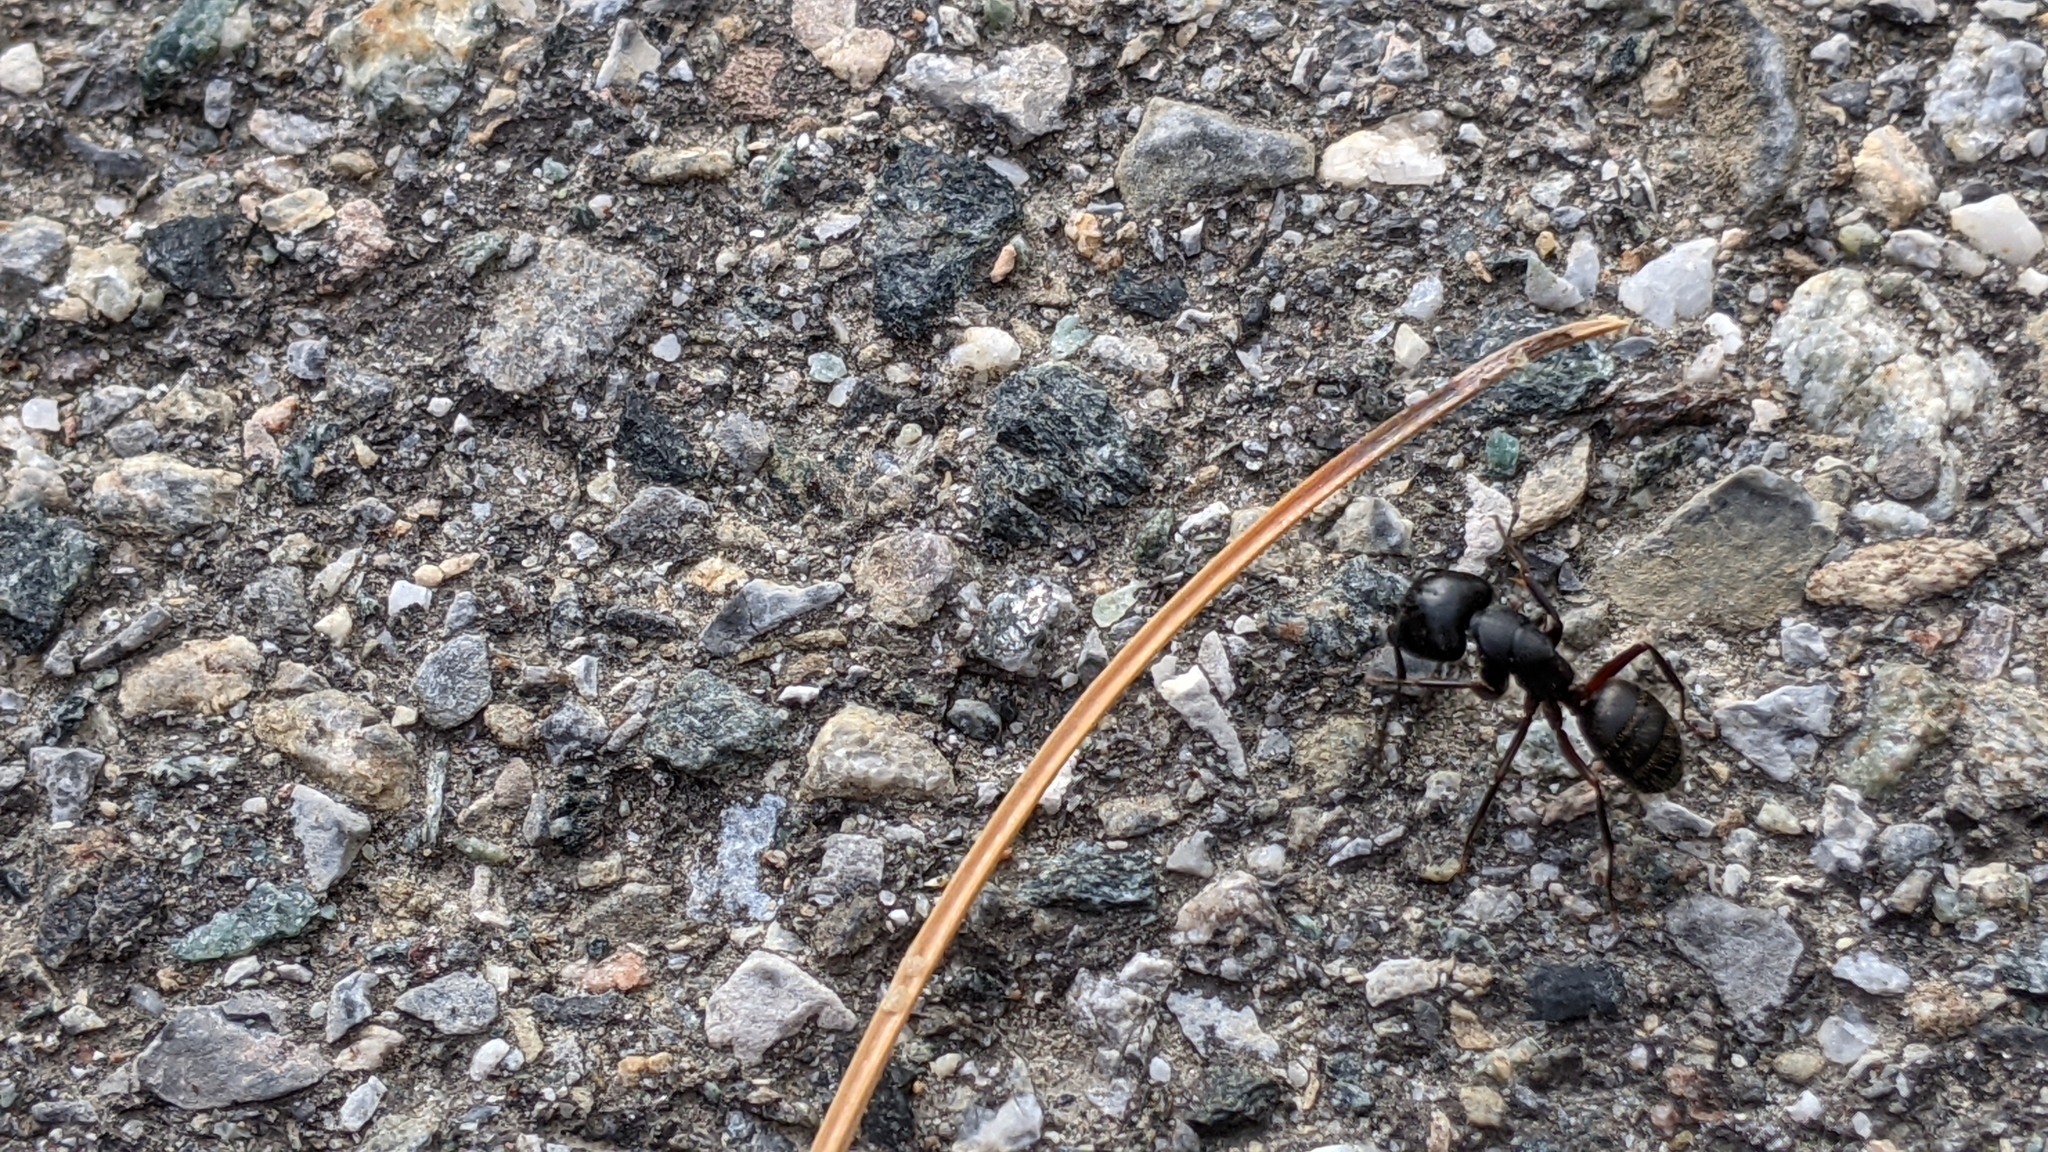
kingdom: Animalia
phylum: Arthropoda
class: Insecta
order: Hymenoptera
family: Formicidae
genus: Camponotus
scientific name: Camponotus herculeanus
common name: Hercules ant
